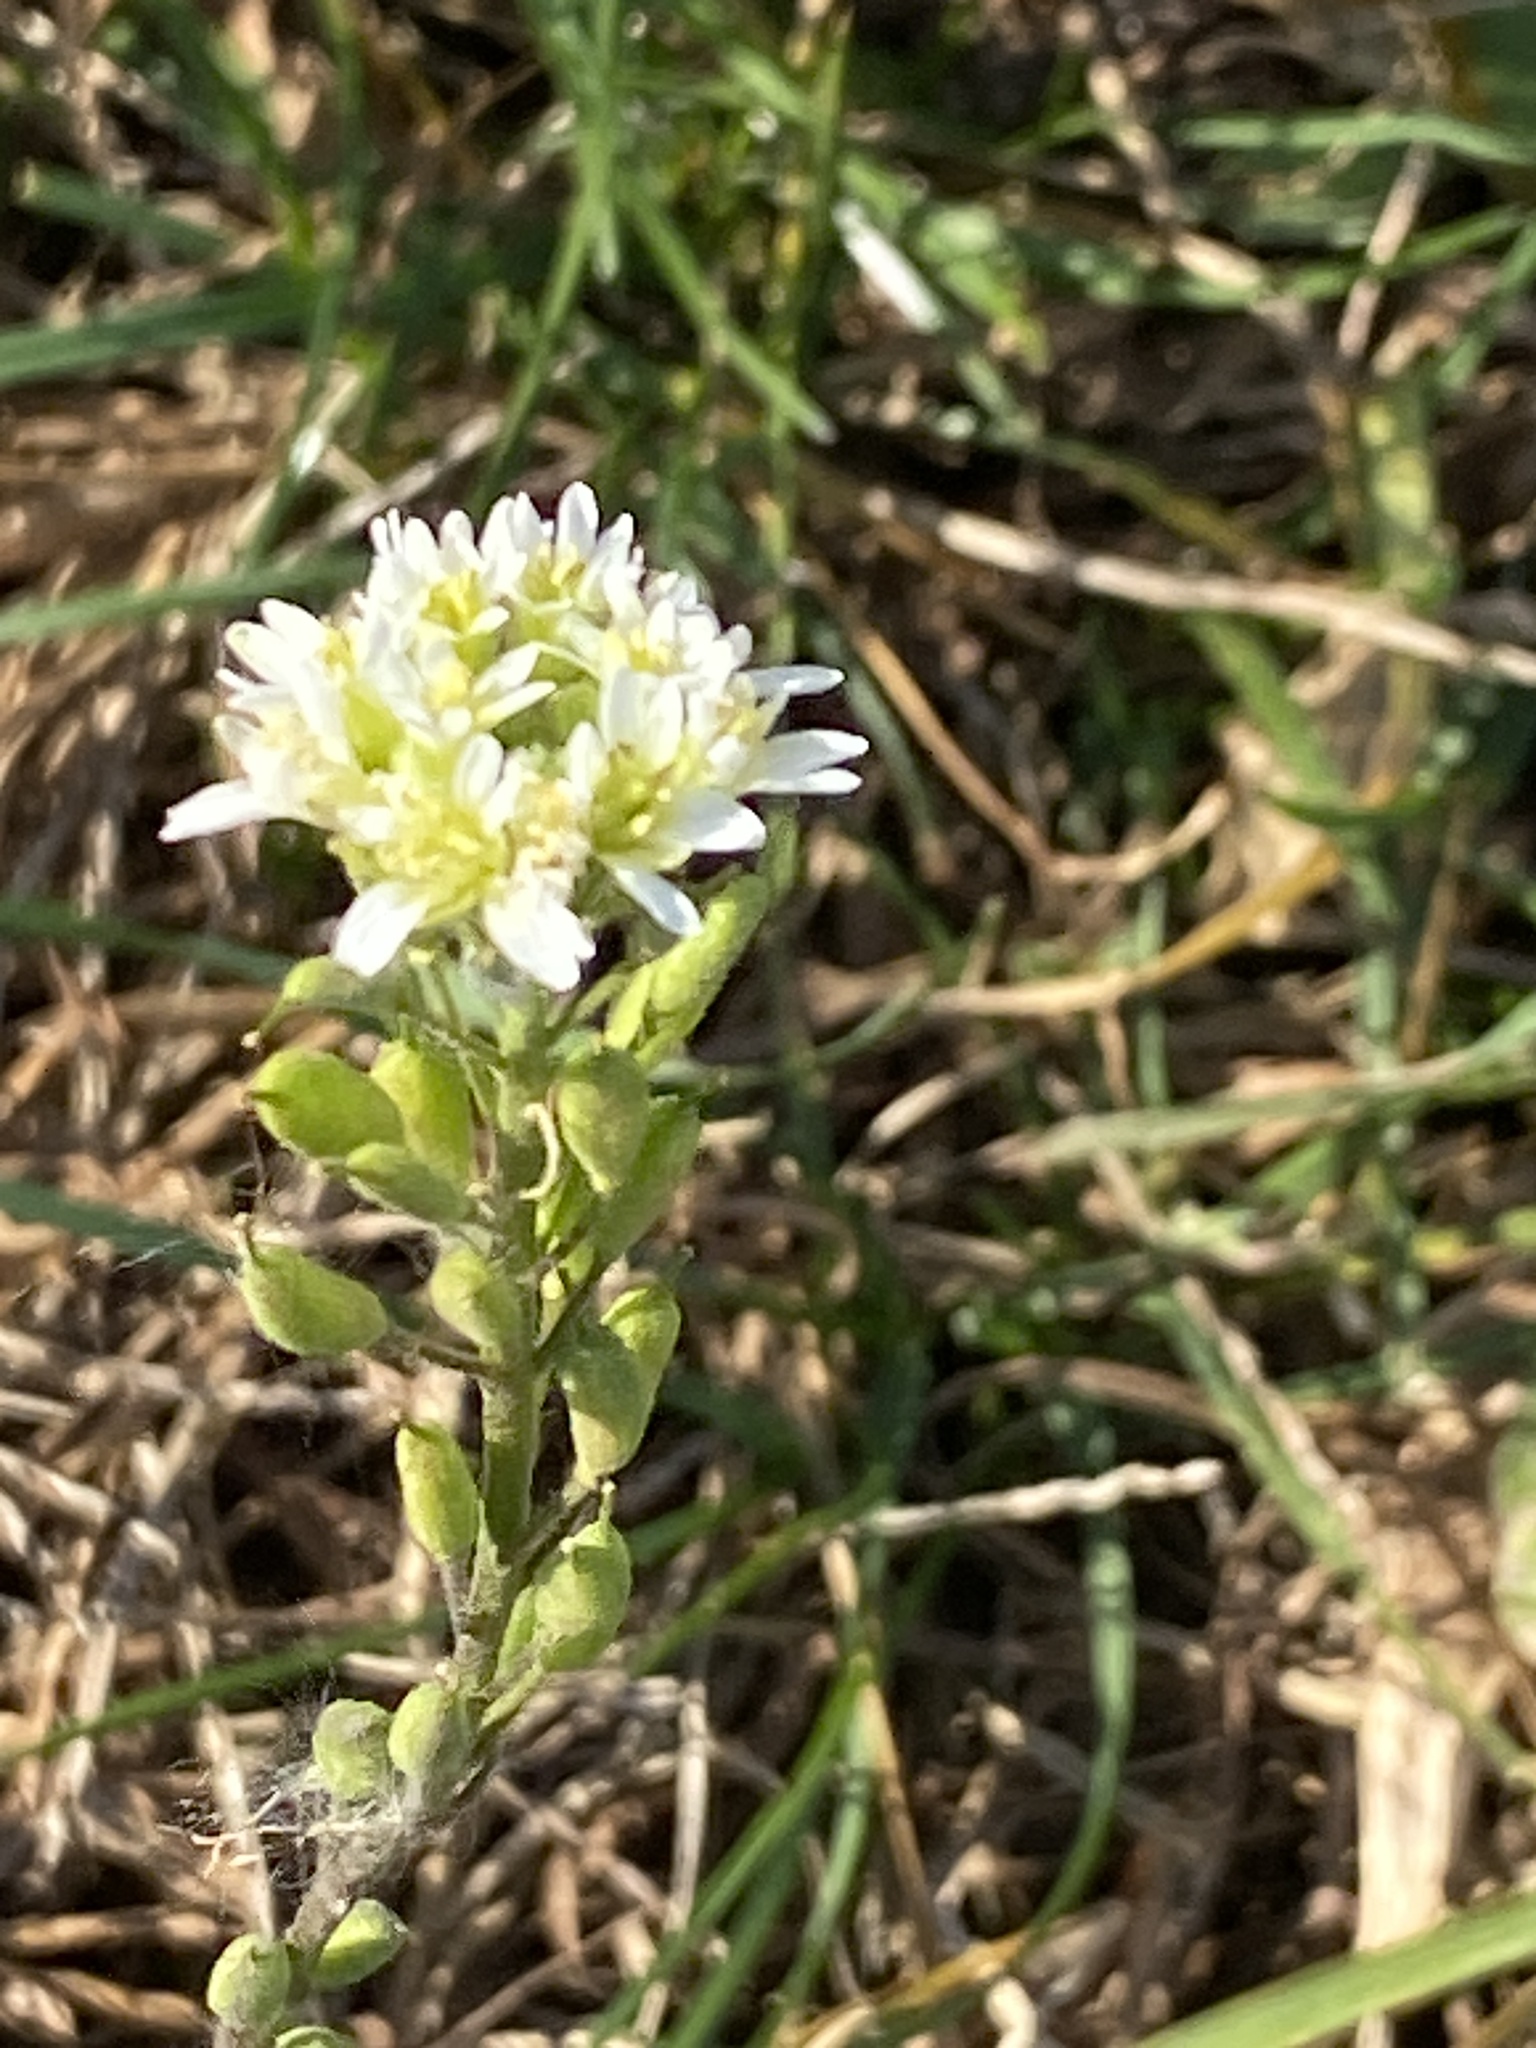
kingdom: Plantae
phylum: Tracheophyta
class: Magnoliopsida
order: Brassicales
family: Brassicaceae
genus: Berteroa
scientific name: Berteroa incana
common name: Hoary alison
